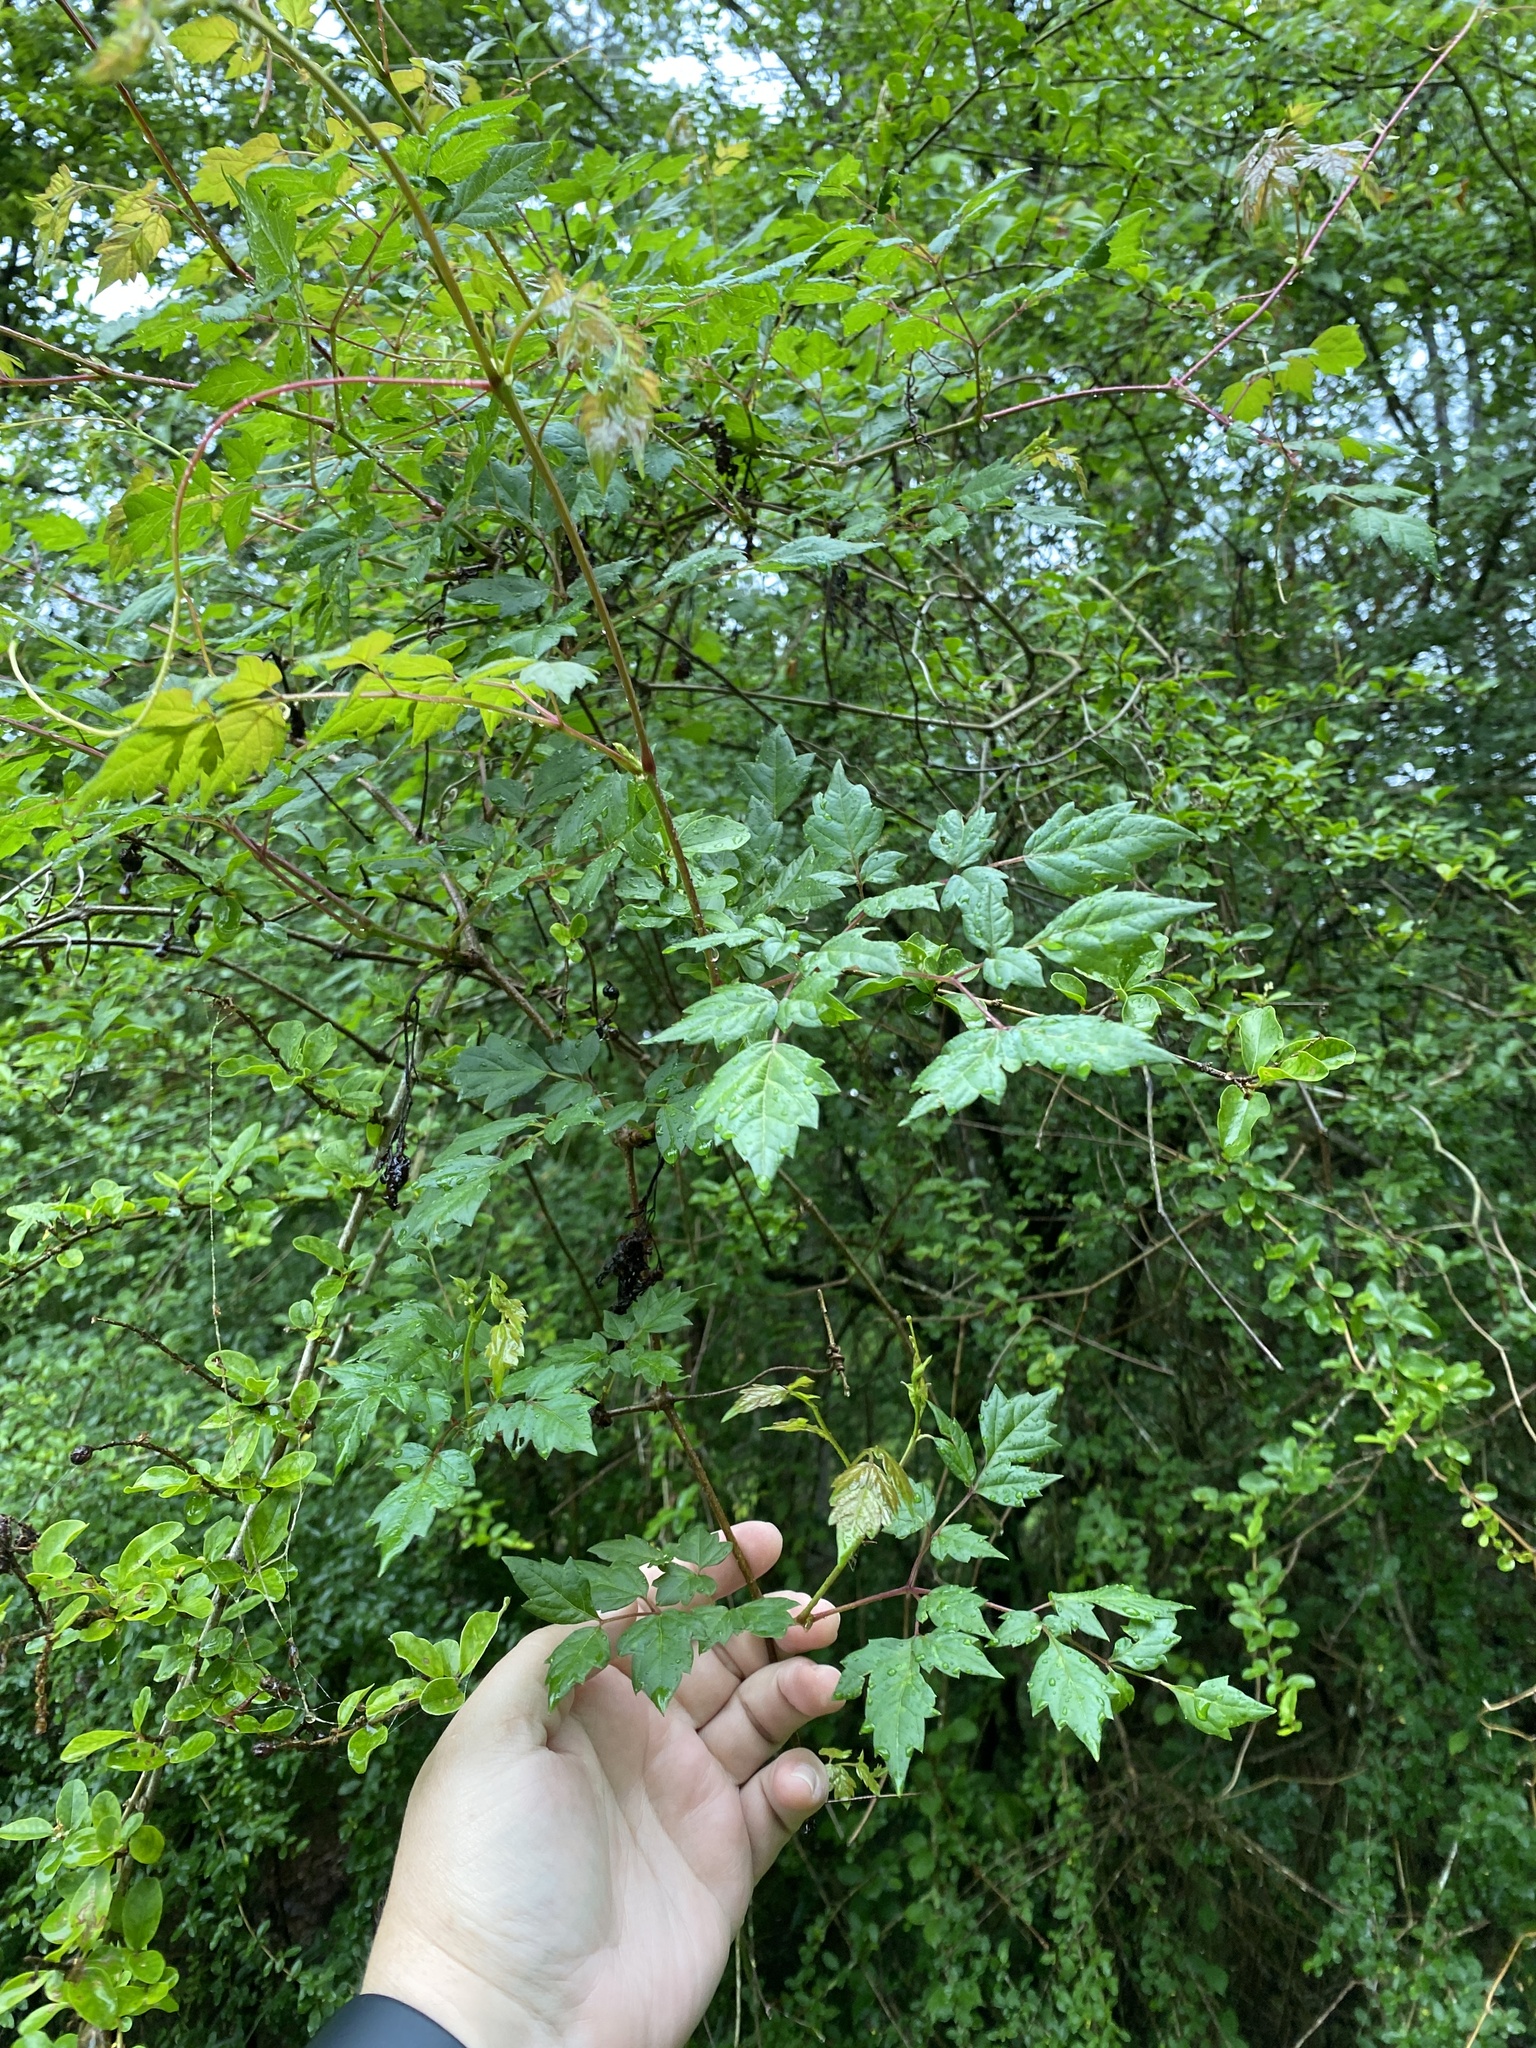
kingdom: Plantae
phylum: Tracheophyta
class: Magnoliopsida
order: Vitales
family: Vitaceae
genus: Nekemias
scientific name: Nekemias arborea
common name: Peppervine
